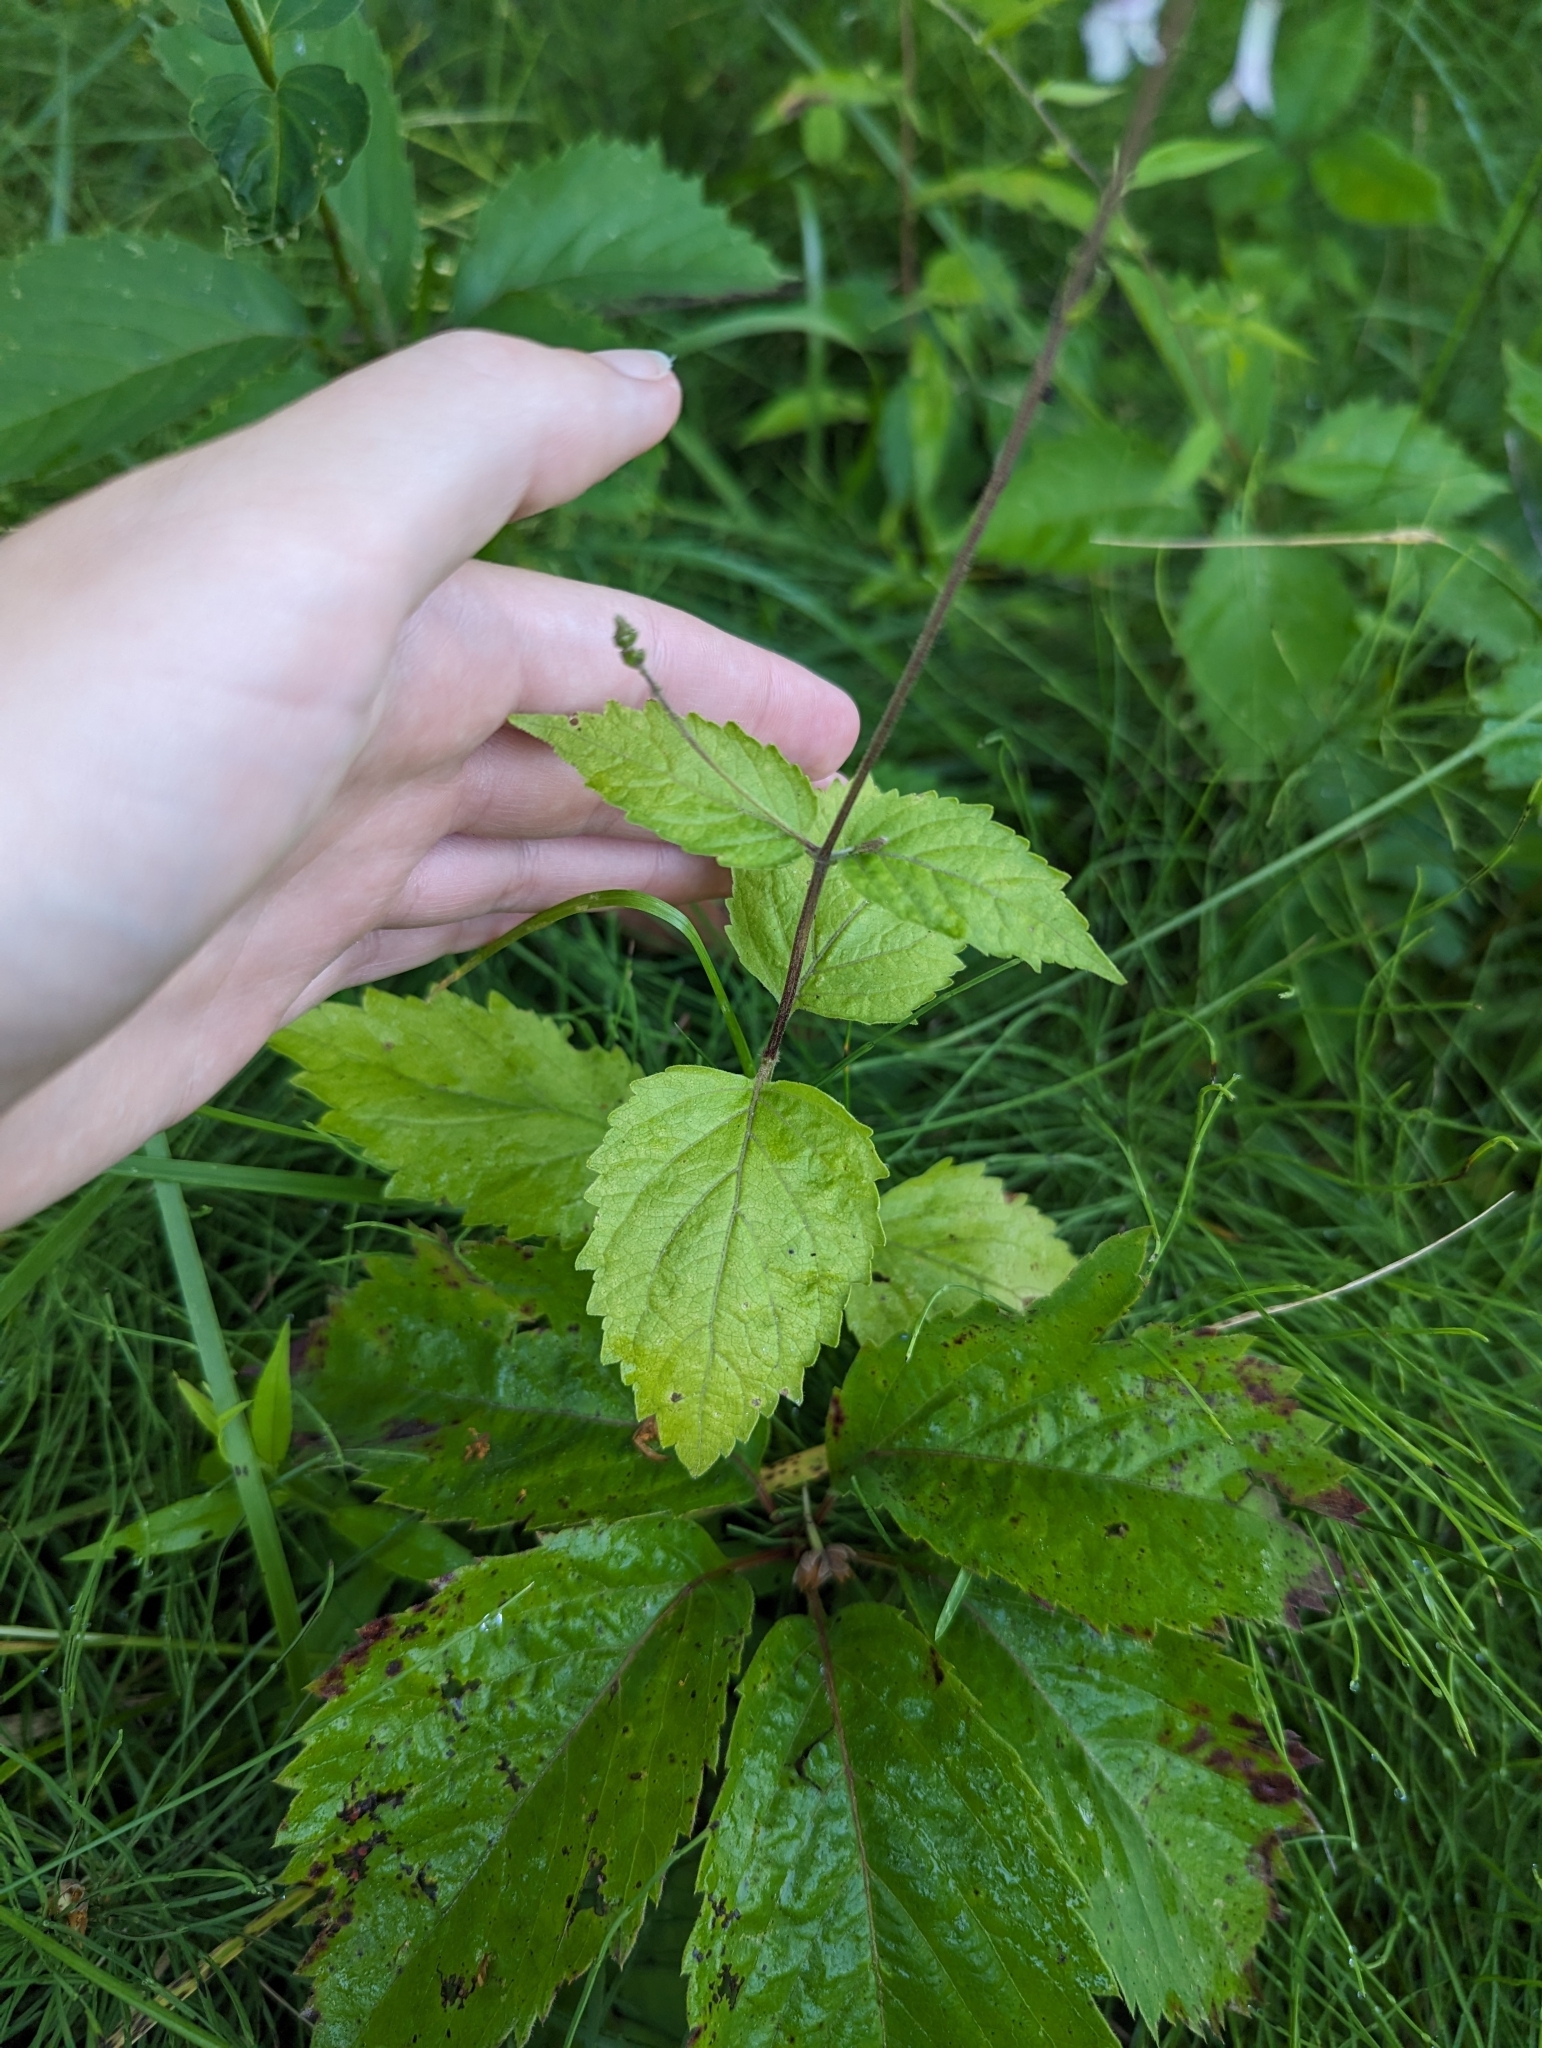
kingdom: Plantae
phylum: Tracheophyta
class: Magnoliopsida
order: Lamiales
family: Phrymaceae
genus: Phryma
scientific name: Phryma leptostachya
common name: American lopseed
